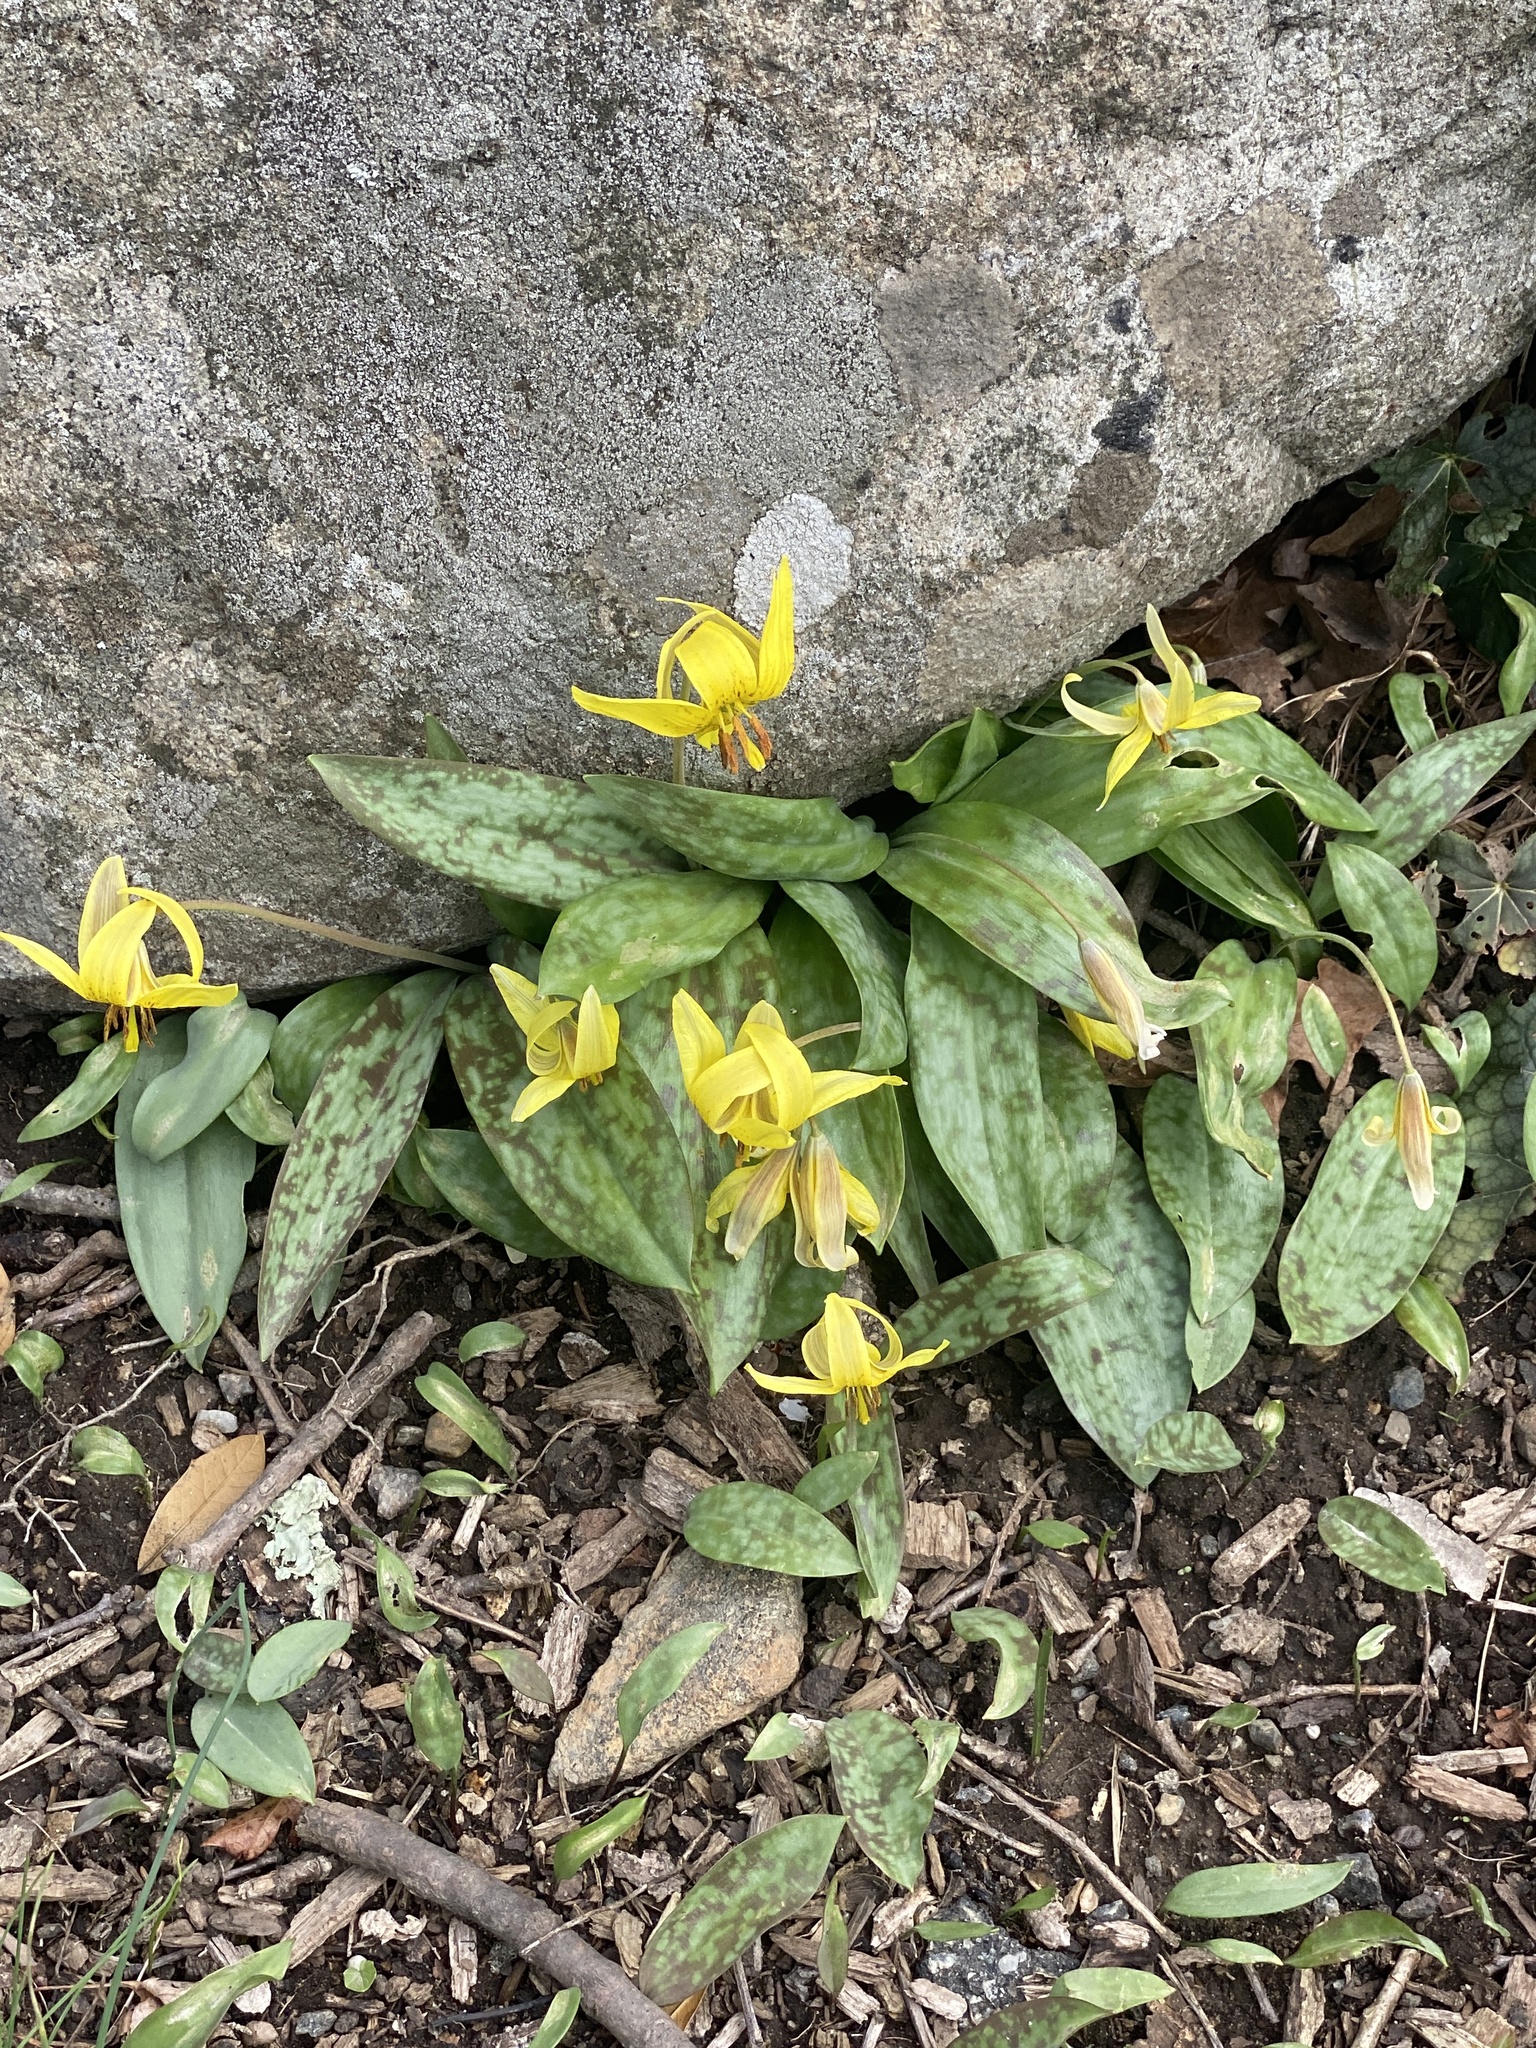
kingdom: Plantae
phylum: Tracheophyta
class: Liliopsida
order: Liliales
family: Liliaceae
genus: Erythronium
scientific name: Erythronium americanum
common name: Yellow adder's-tongue
